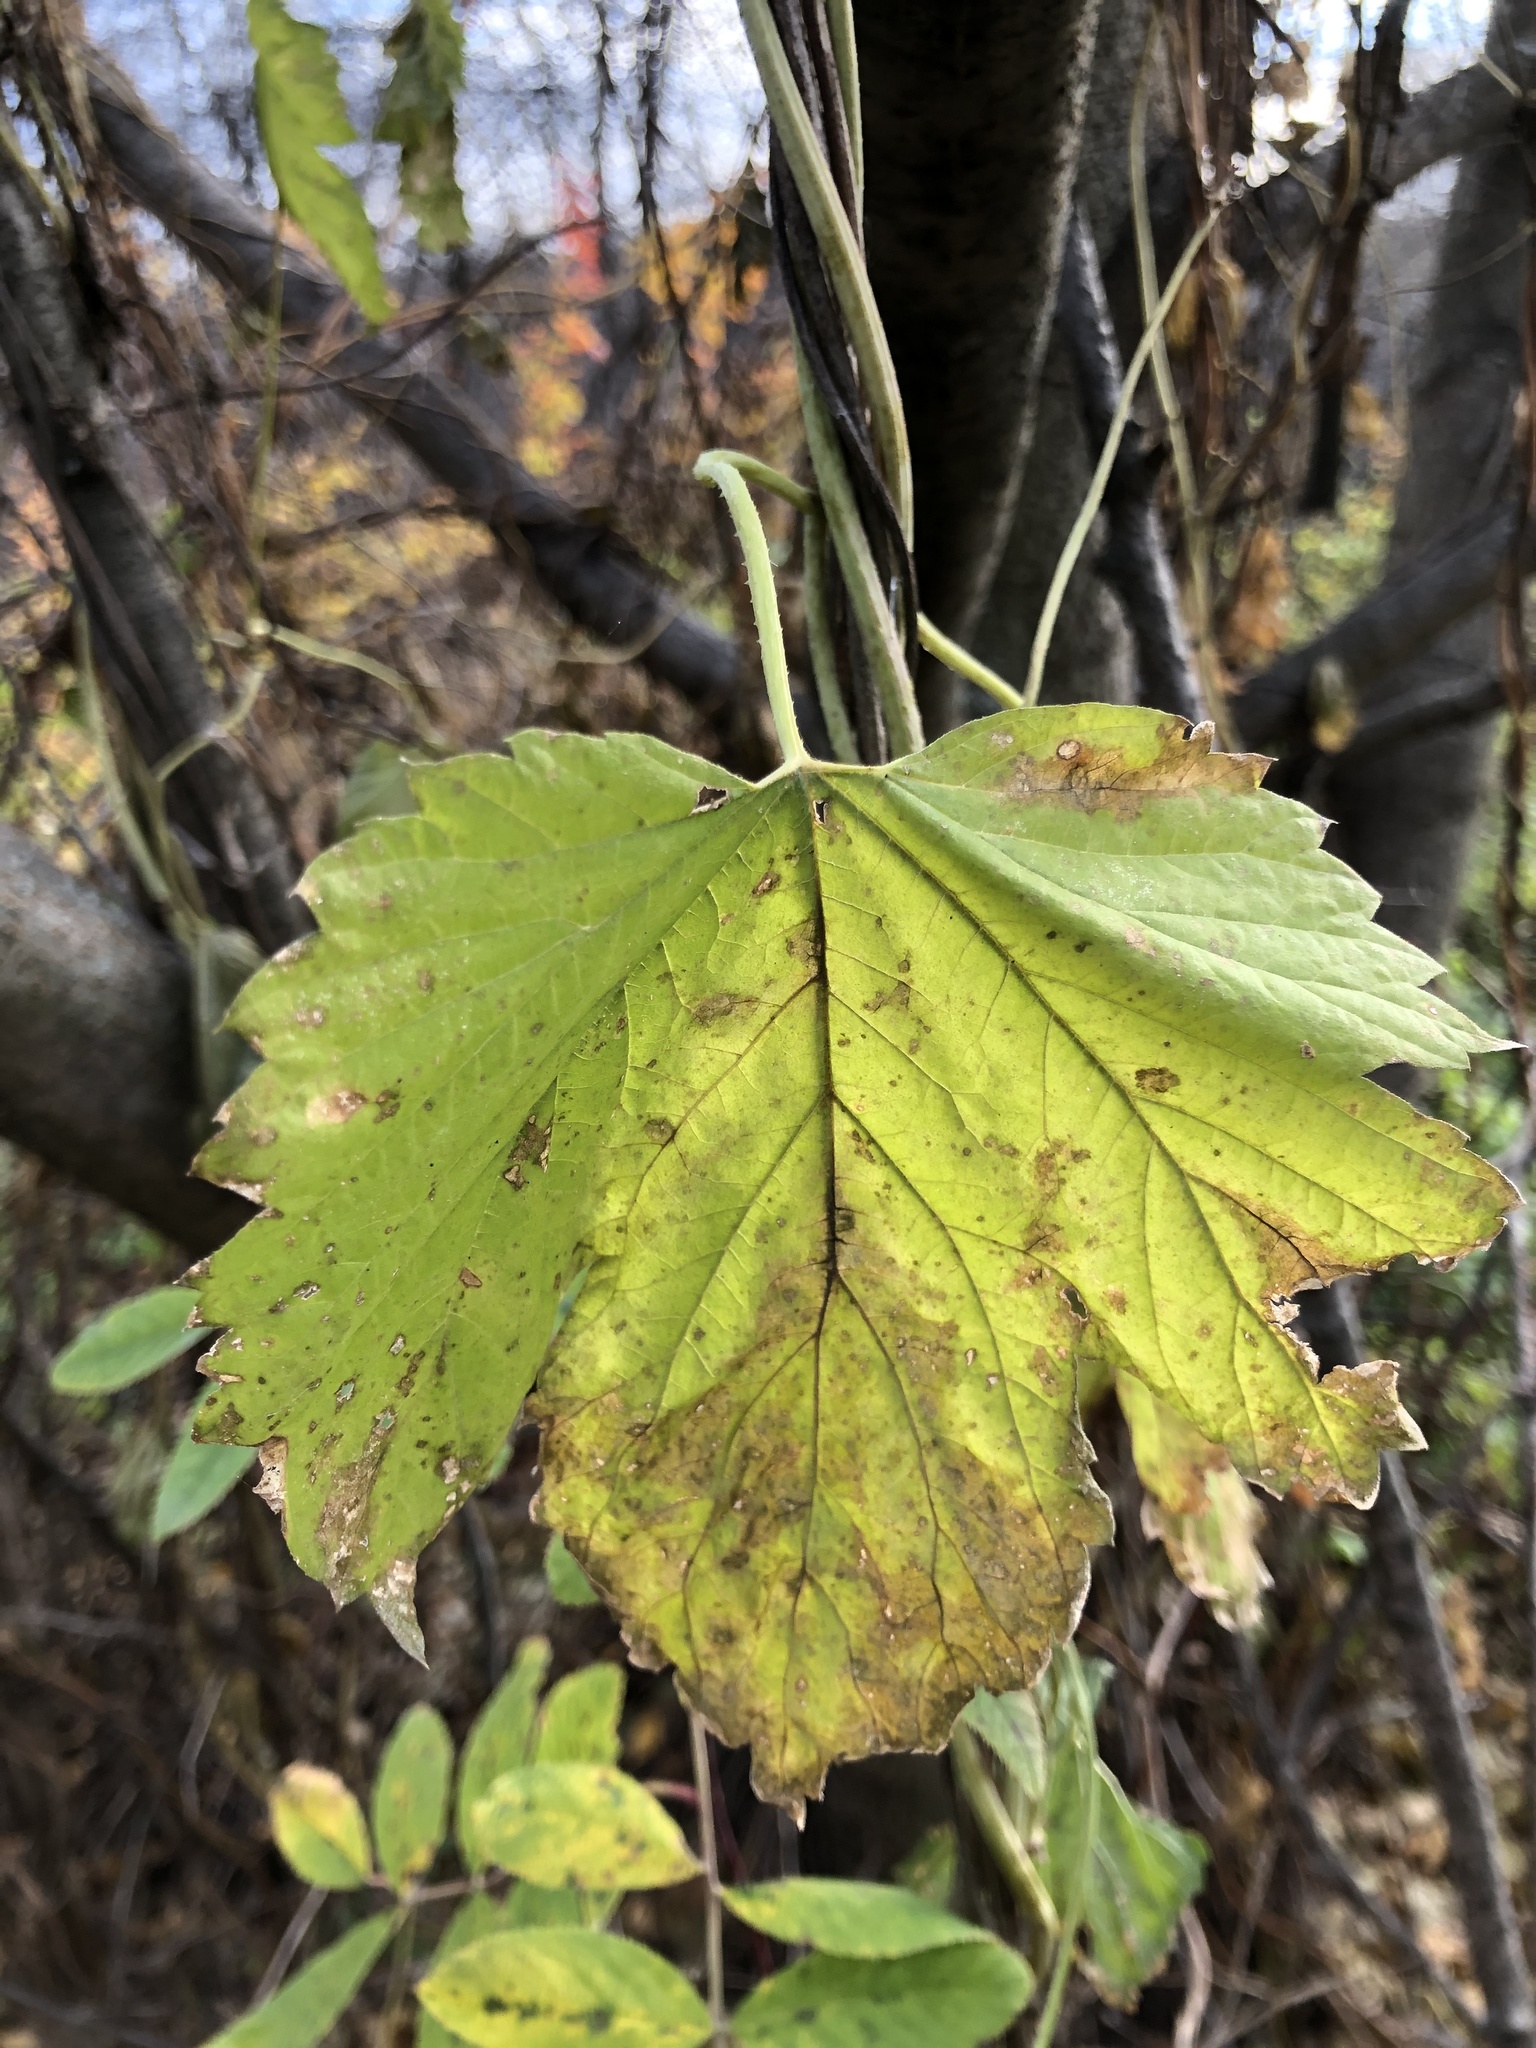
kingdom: Plantae
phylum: Tracheophyta
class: Magnoliopsida
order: Rosales
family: Cannabaceae
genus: Humulus
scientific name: Humulus lupulus
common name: Hop
